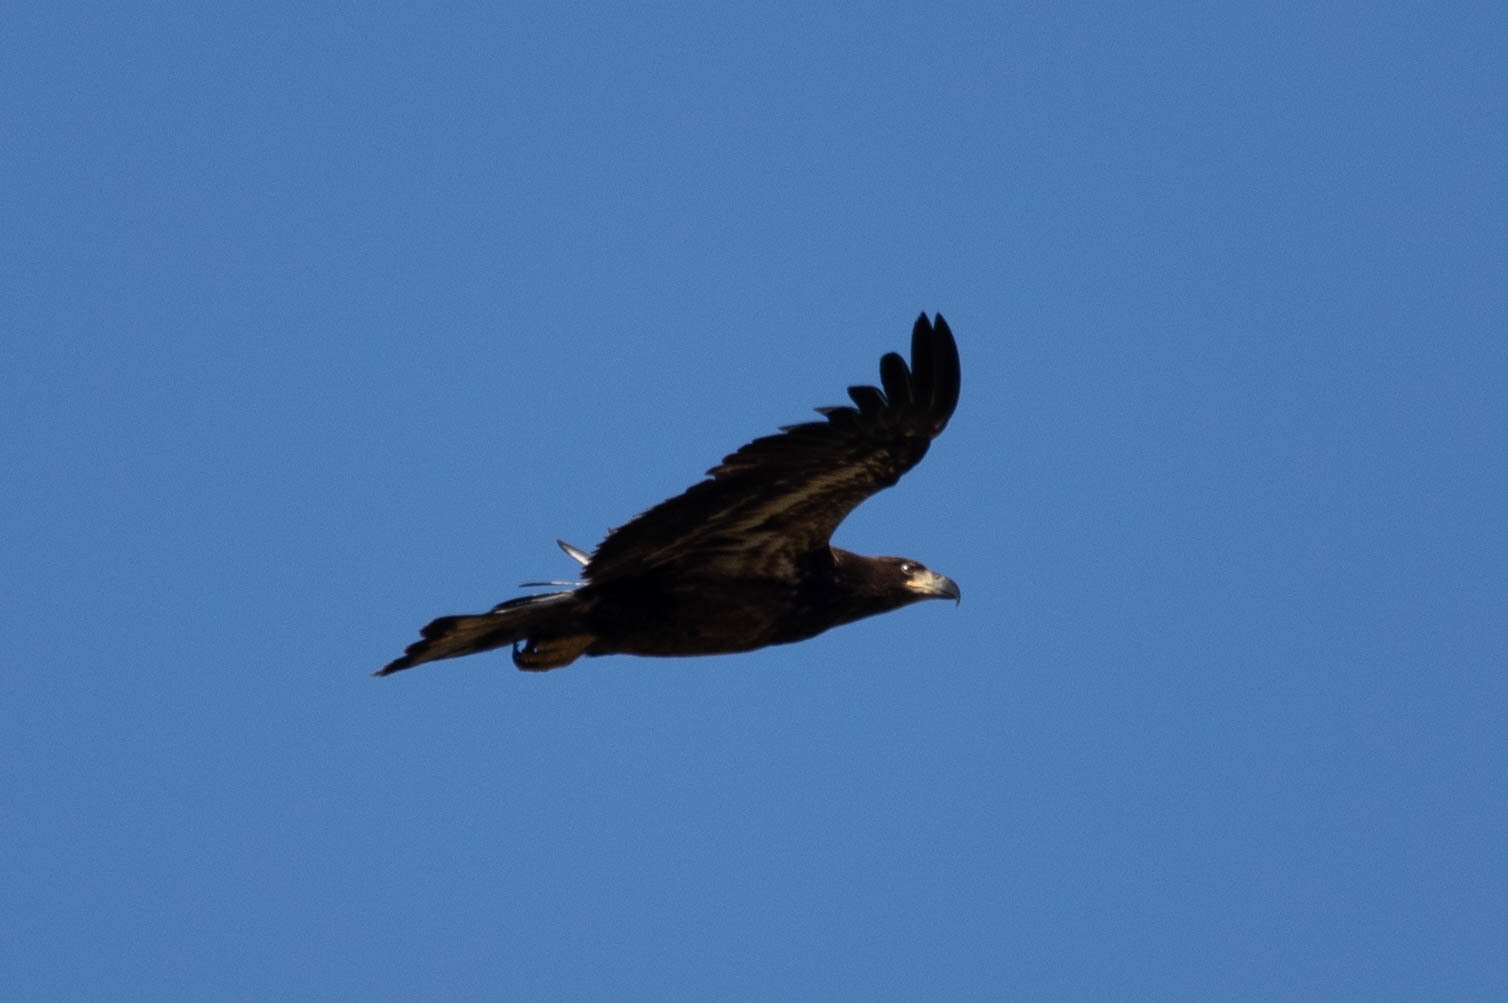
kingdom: Animalia
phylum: Chordata
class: Aves
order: Accipitriformes
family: Accipitridae
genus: Haliaeetus
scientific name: Haliaeetus leucocephalus
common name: Bald eagle
